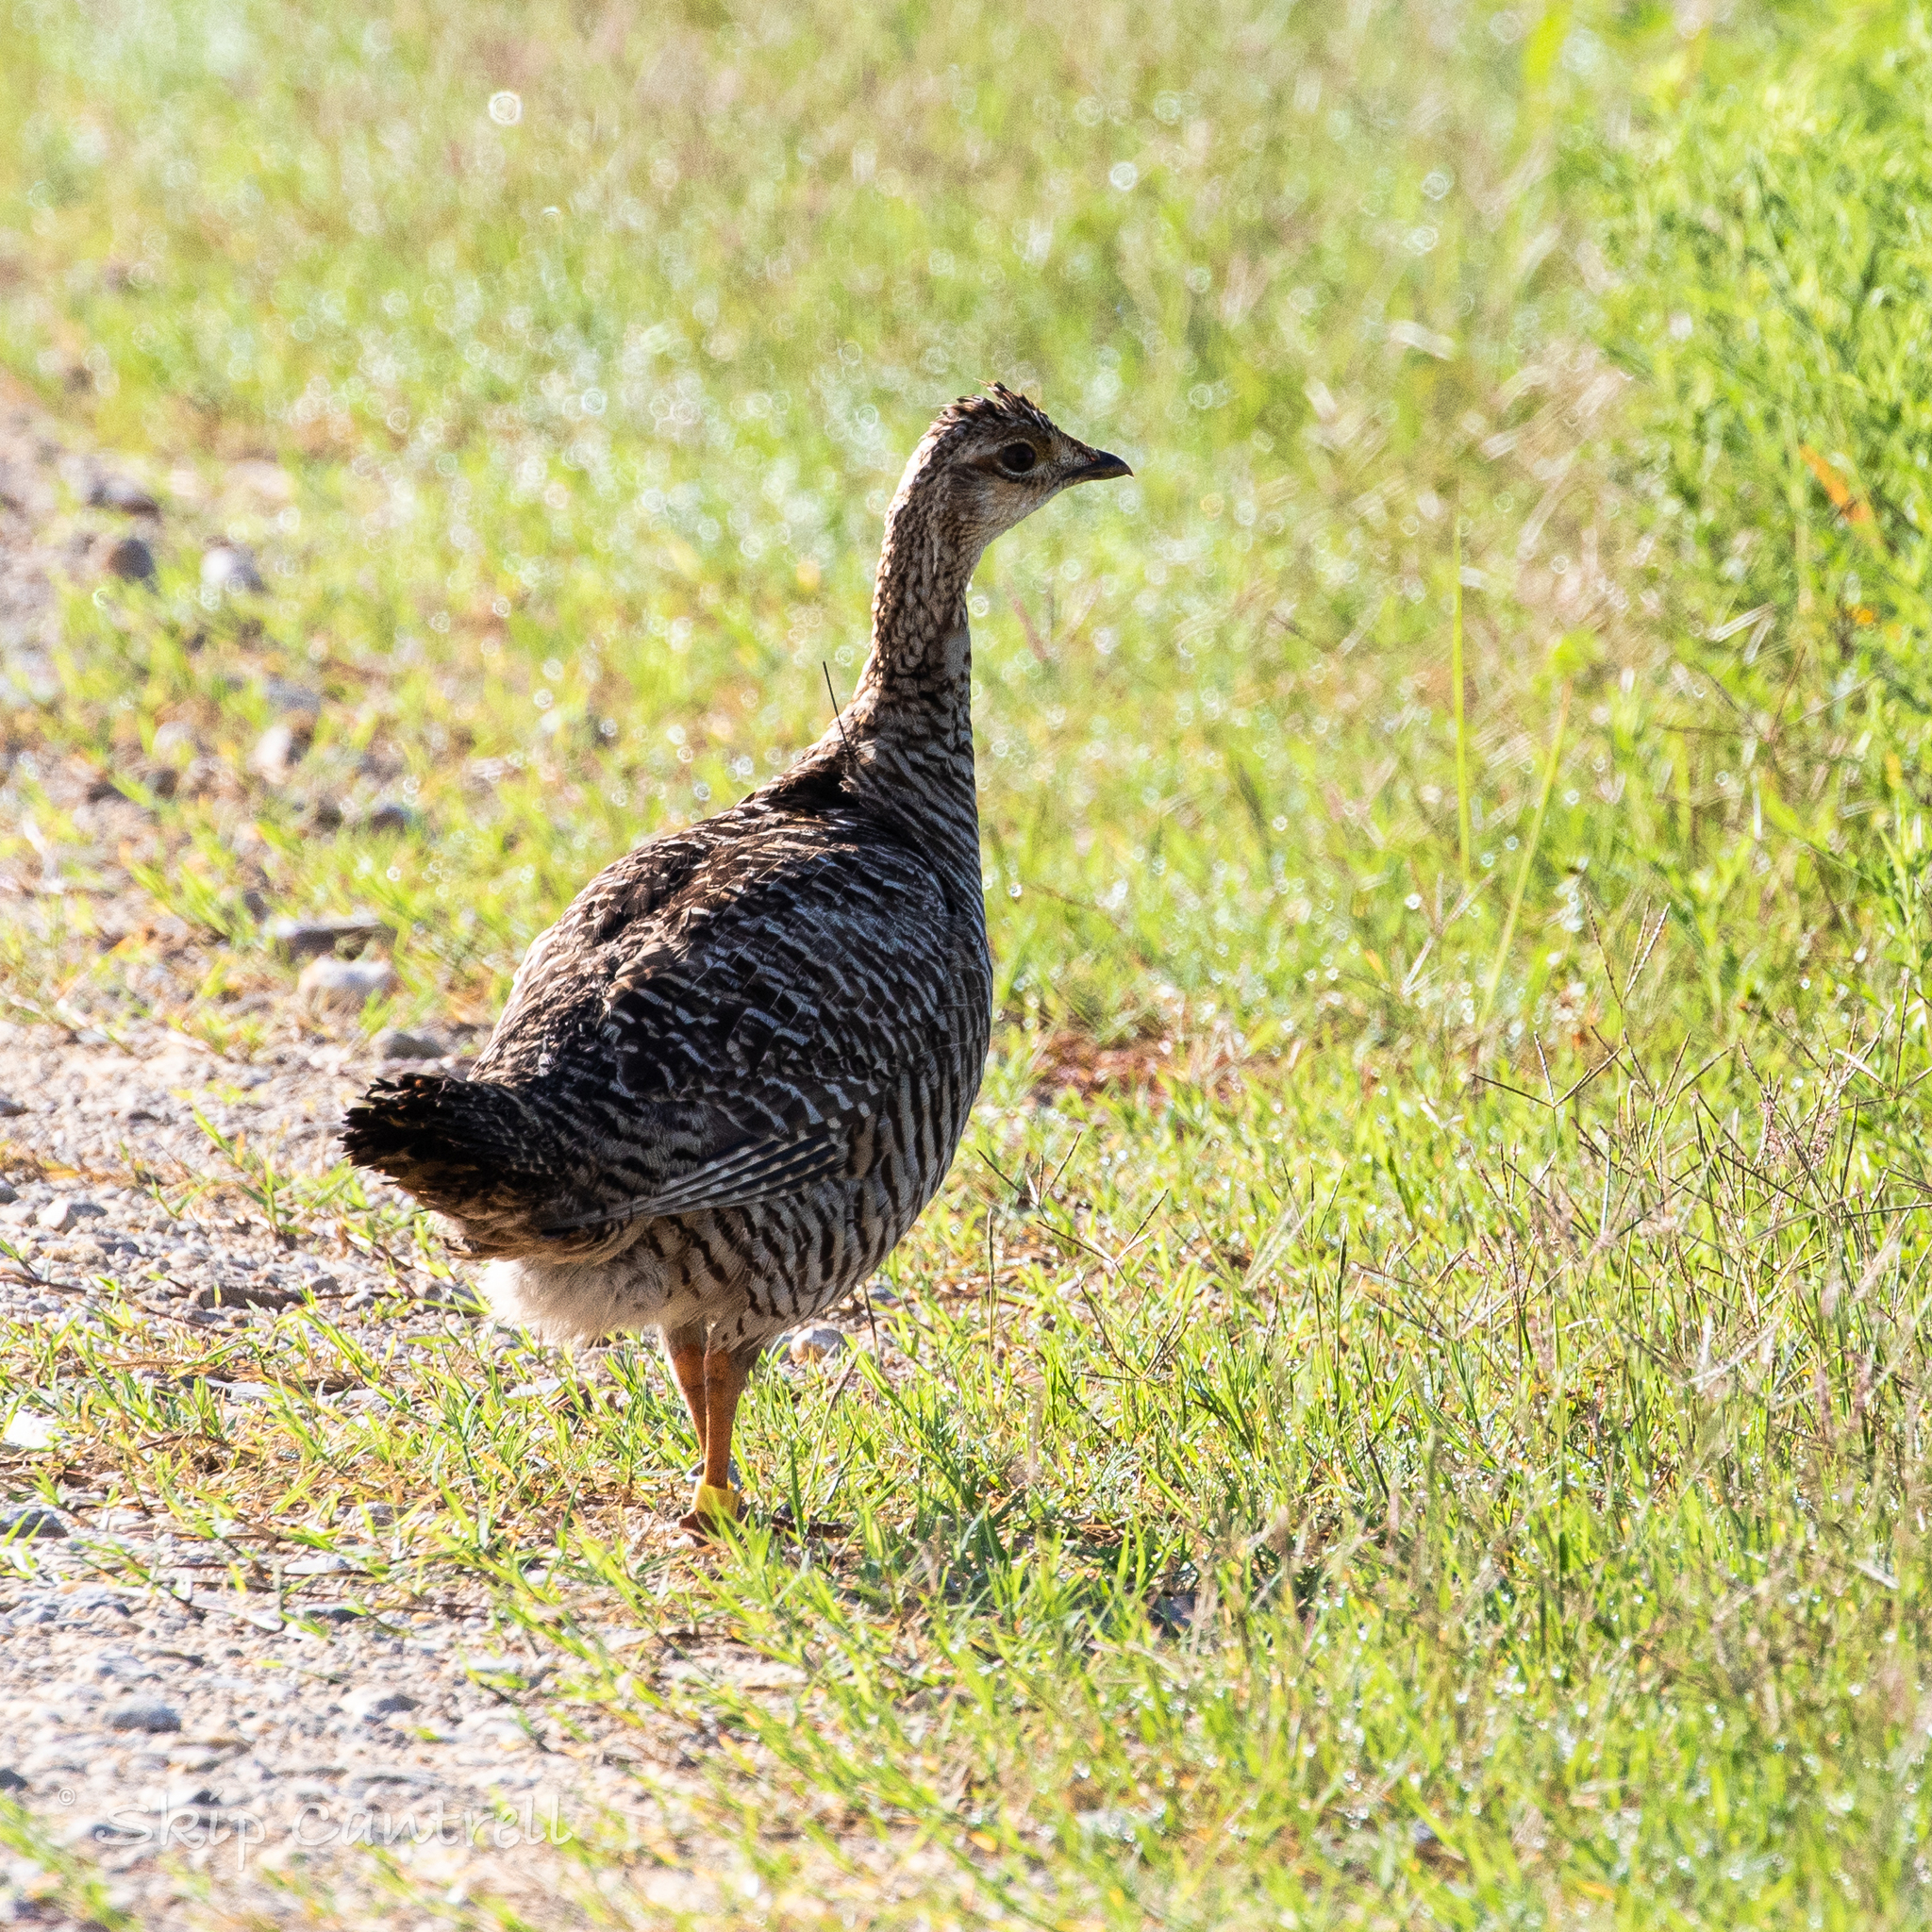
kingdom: Animalia
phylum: Chordata
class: Aves
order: Galliformes
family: Phasianidae
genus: Tympanuchus
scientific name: Tympanuchus cupido
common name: Greater prairie chicken
